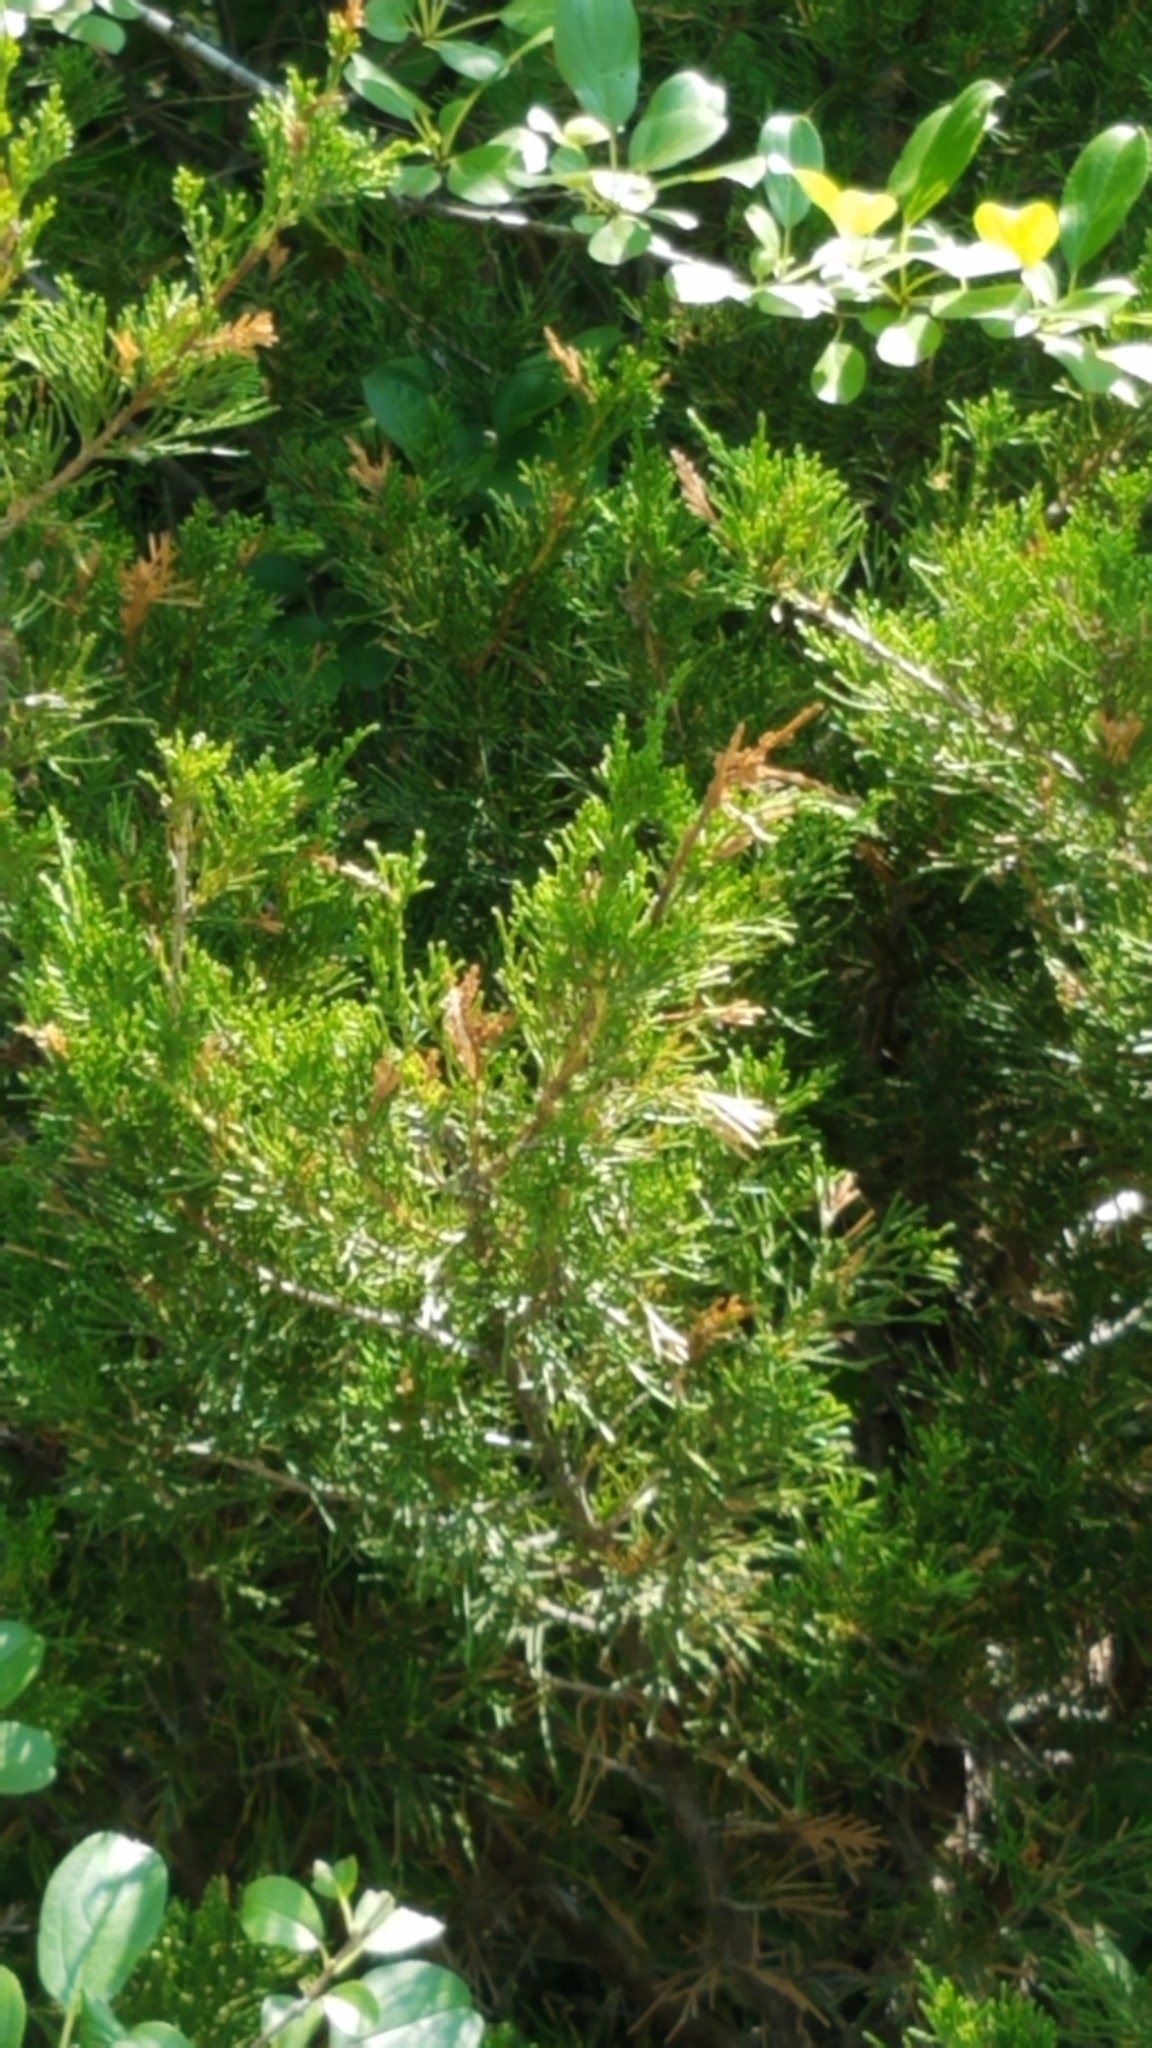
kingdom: Plantae
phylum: Tracheophyta
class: Pinopsida
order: Pinales
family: Cupressaceae
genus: Juniperus
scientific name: Juniperus virginiana
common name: Red juniper
